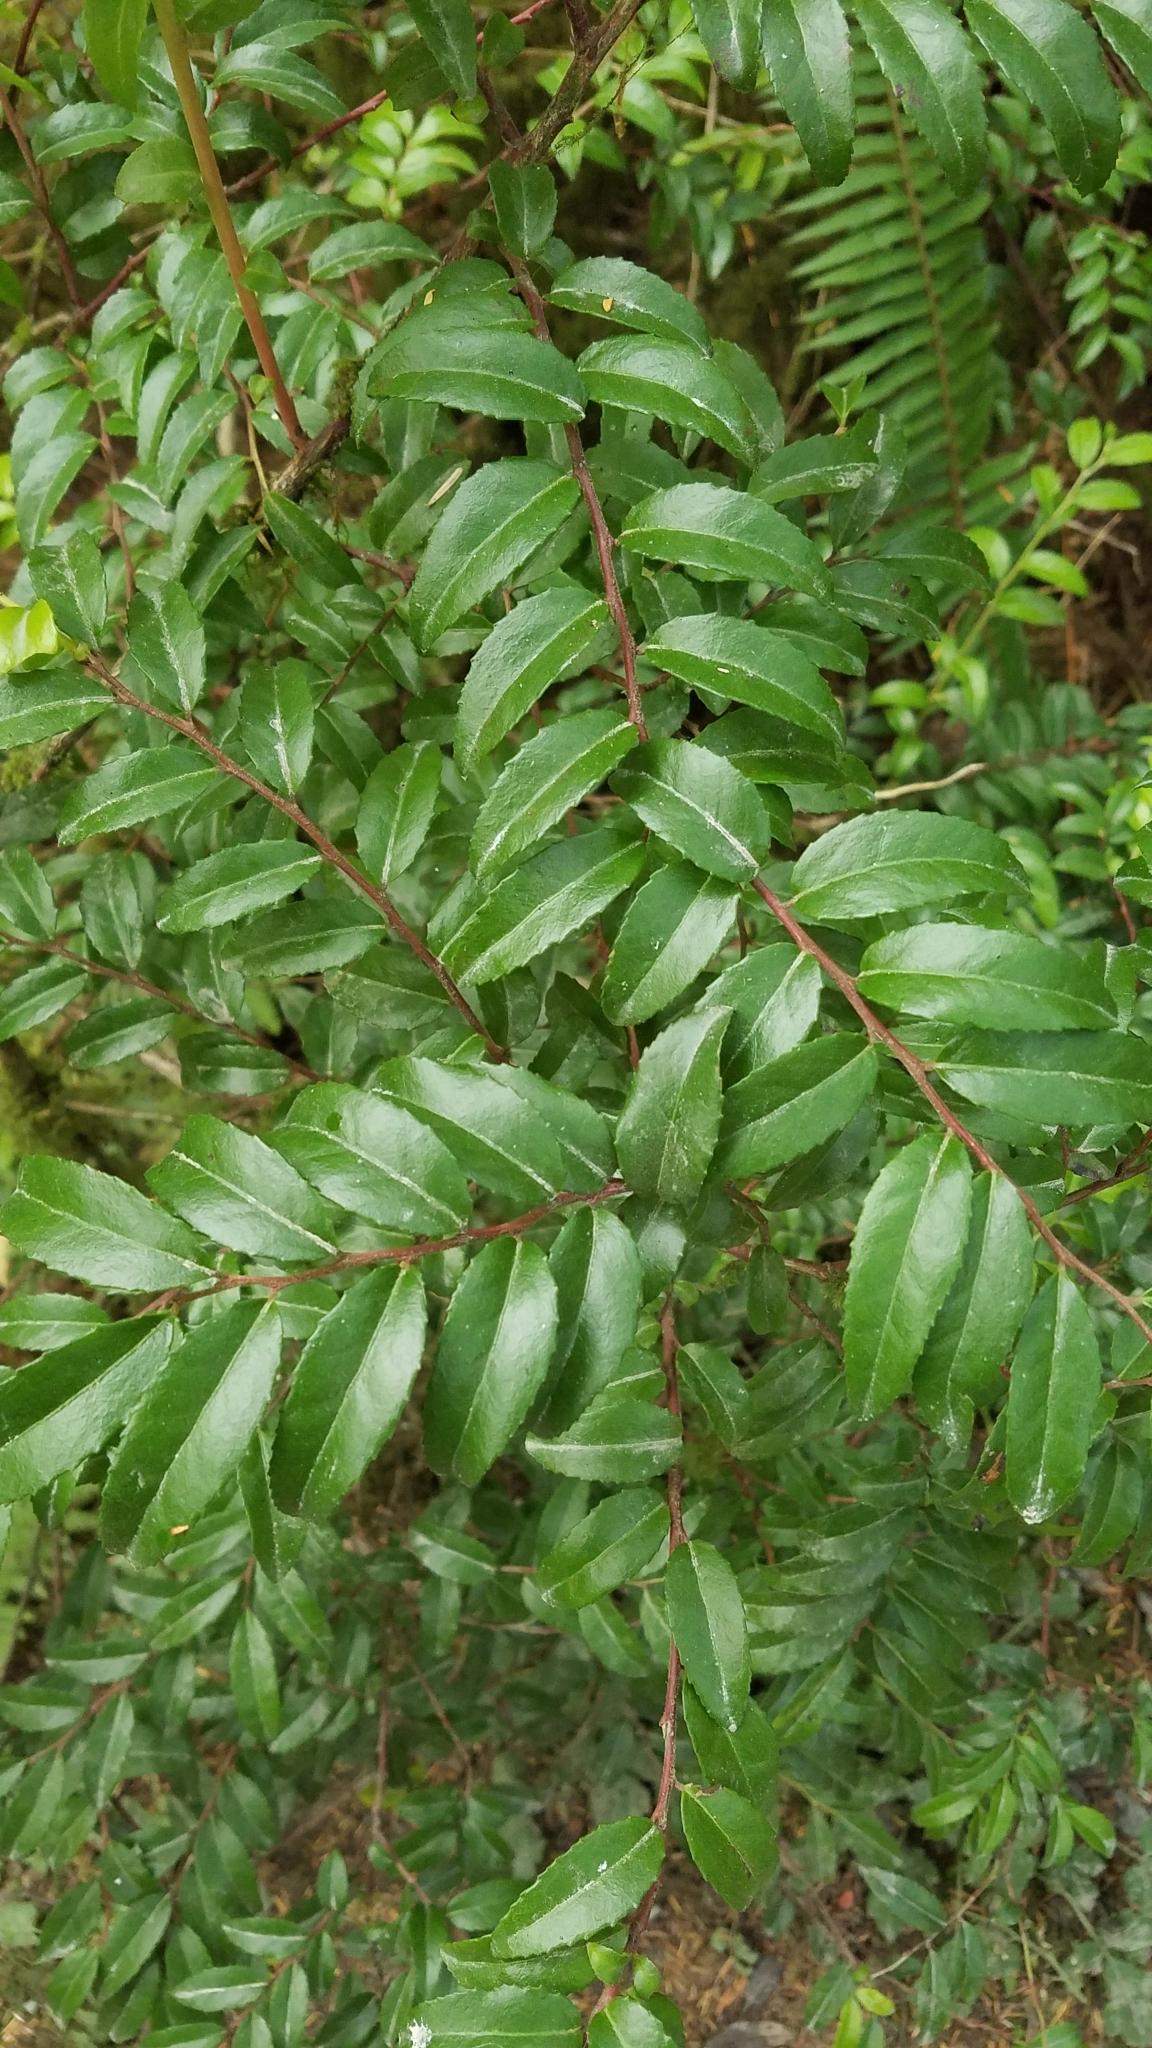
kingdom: Plantae
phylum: Tracheophyta
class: Magnoliopsida
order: Ericales
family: Ericaceae
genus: Vaccinium
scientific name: Vaccinium ovatum
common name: California-huckleberry
